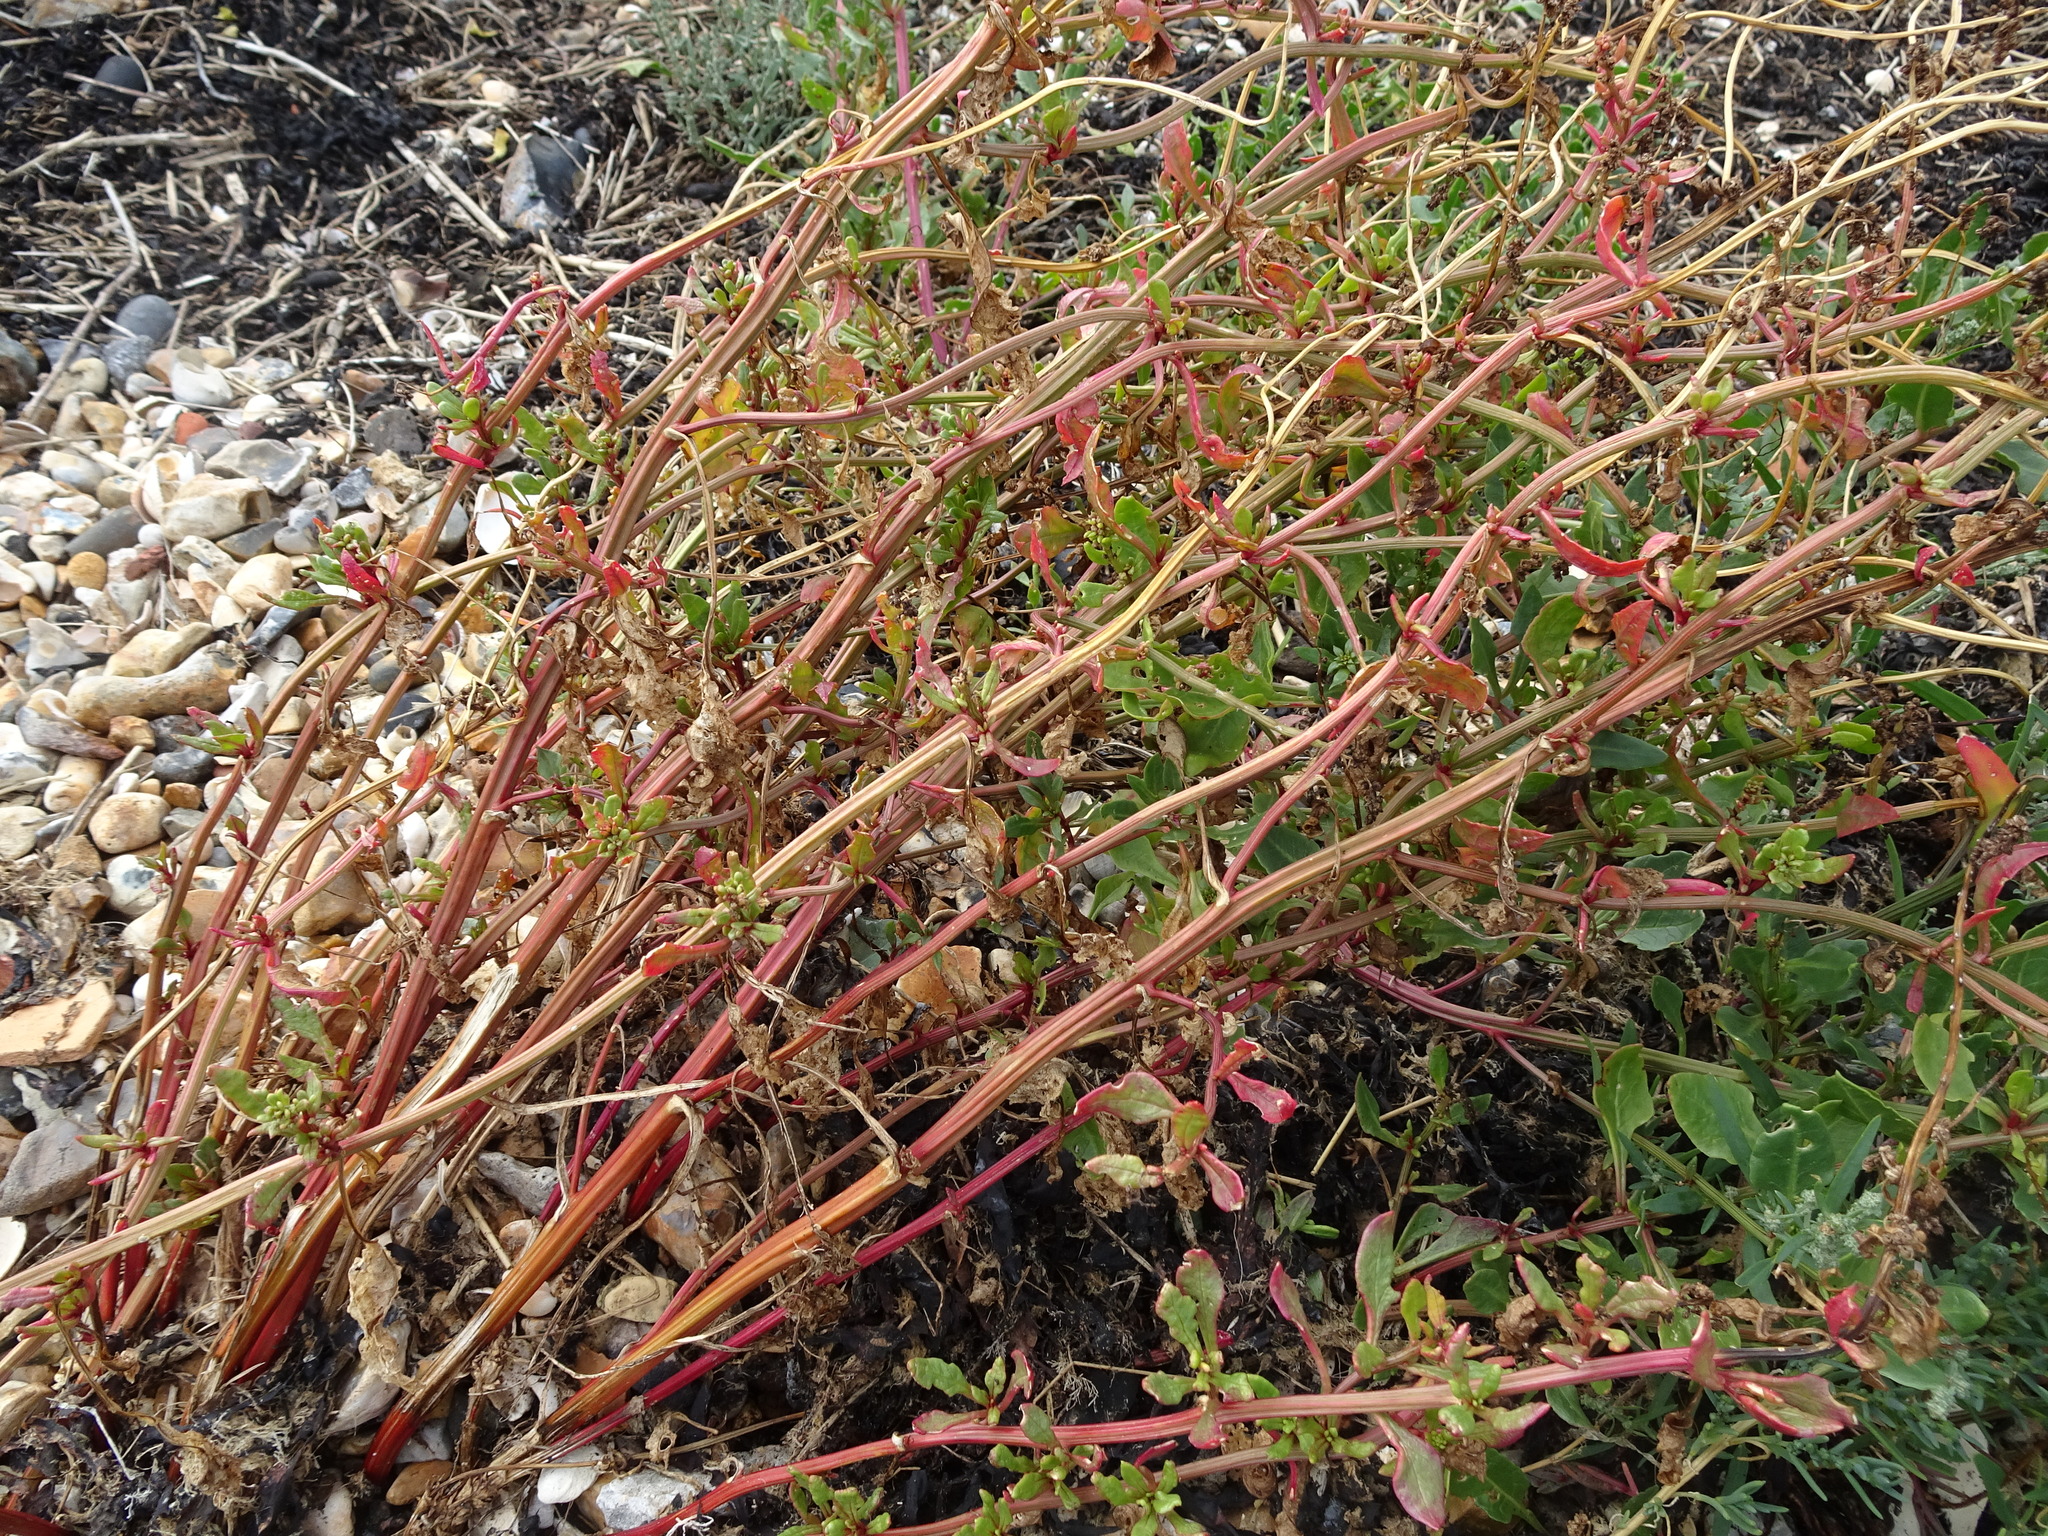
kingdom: Plantae
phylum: Tracheophyta
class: Magnoliopsida
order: Caryophyllales
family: Amaranthaceae
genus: Beta
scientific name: Beta vulgaris
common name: Beet
